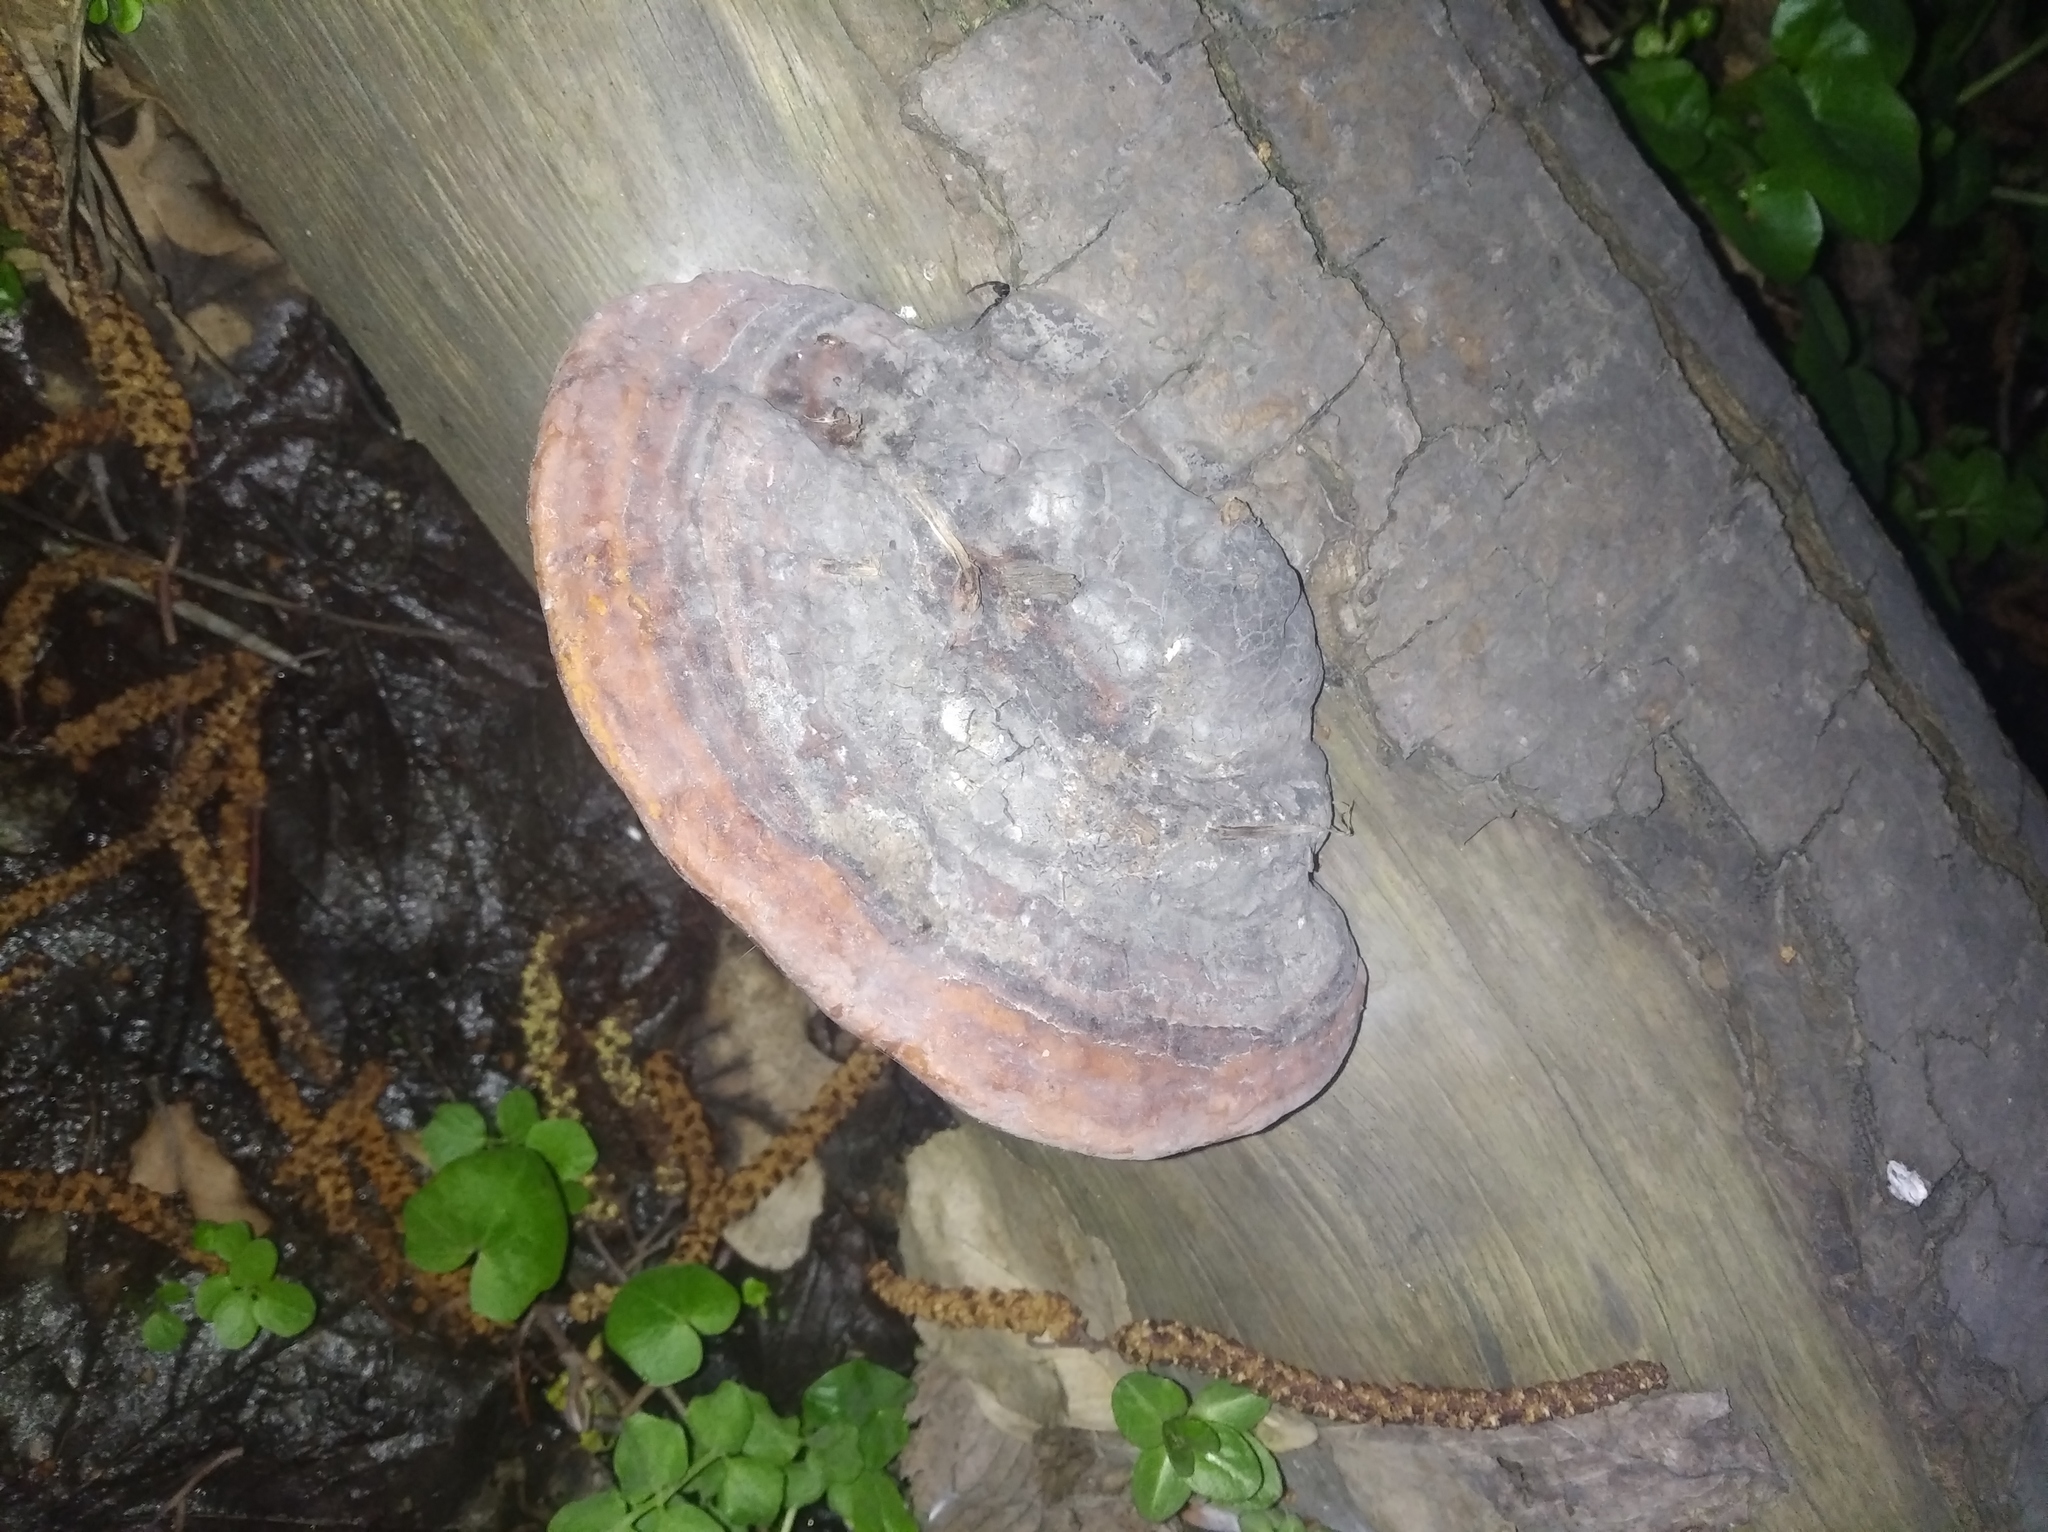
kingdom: Fungi
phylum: Basidiomycota
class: Agaricomycetes
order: Polyporales
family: Fomitopsidaceae
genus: Fomitopsis
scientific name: Fomitopsis pinicola
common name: Red-belted bracket
